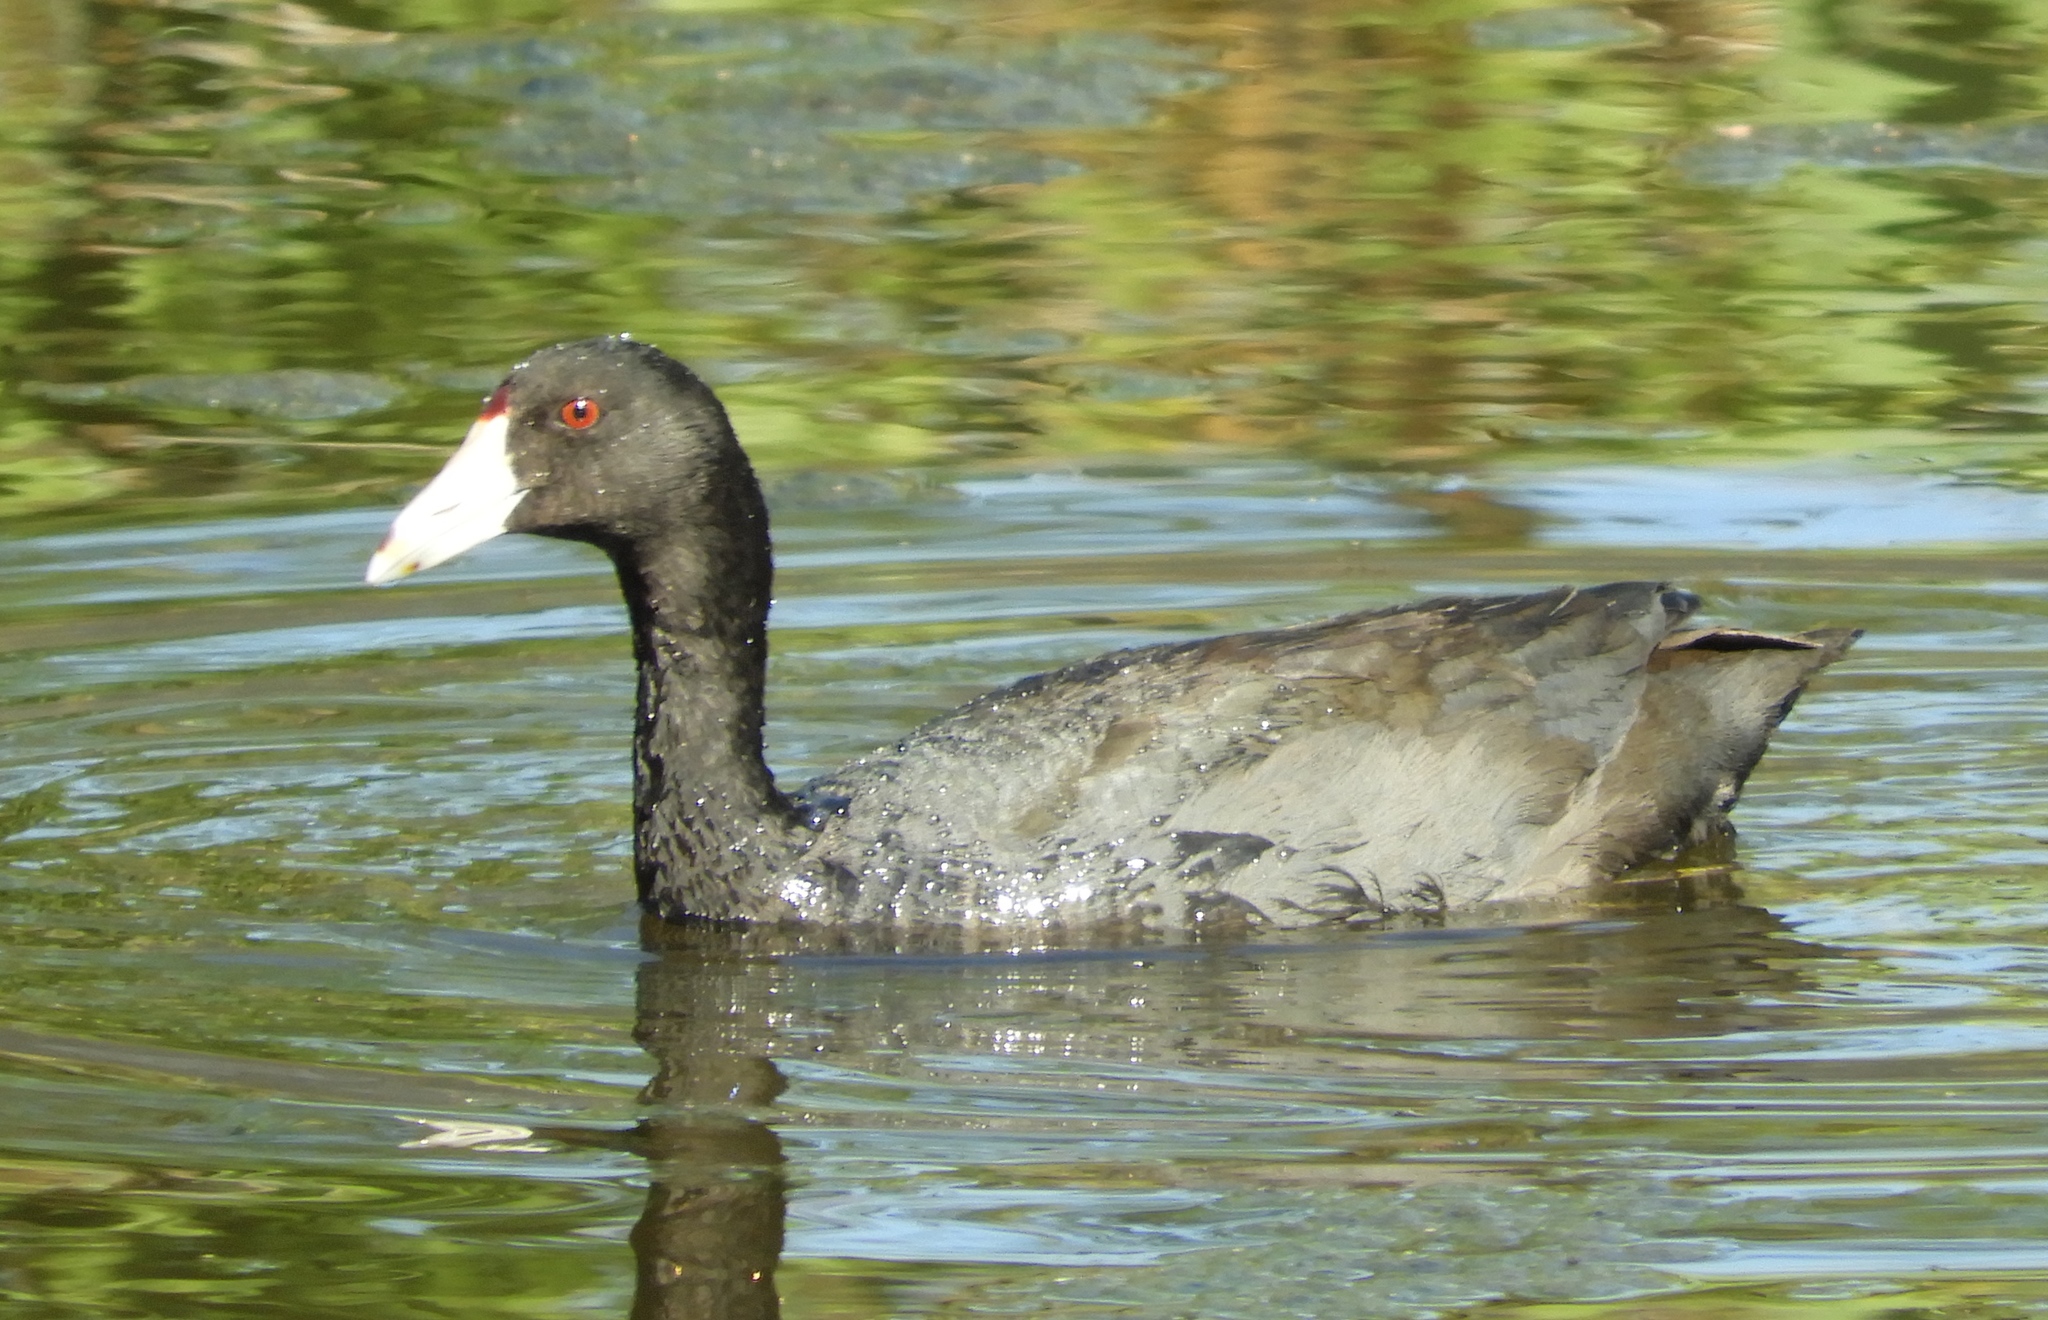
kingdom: Animalia
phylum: Chordata
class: Aves
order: Gruiformes
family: Rallidae
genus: Fulica
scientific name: Fulica americana
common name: American coot
